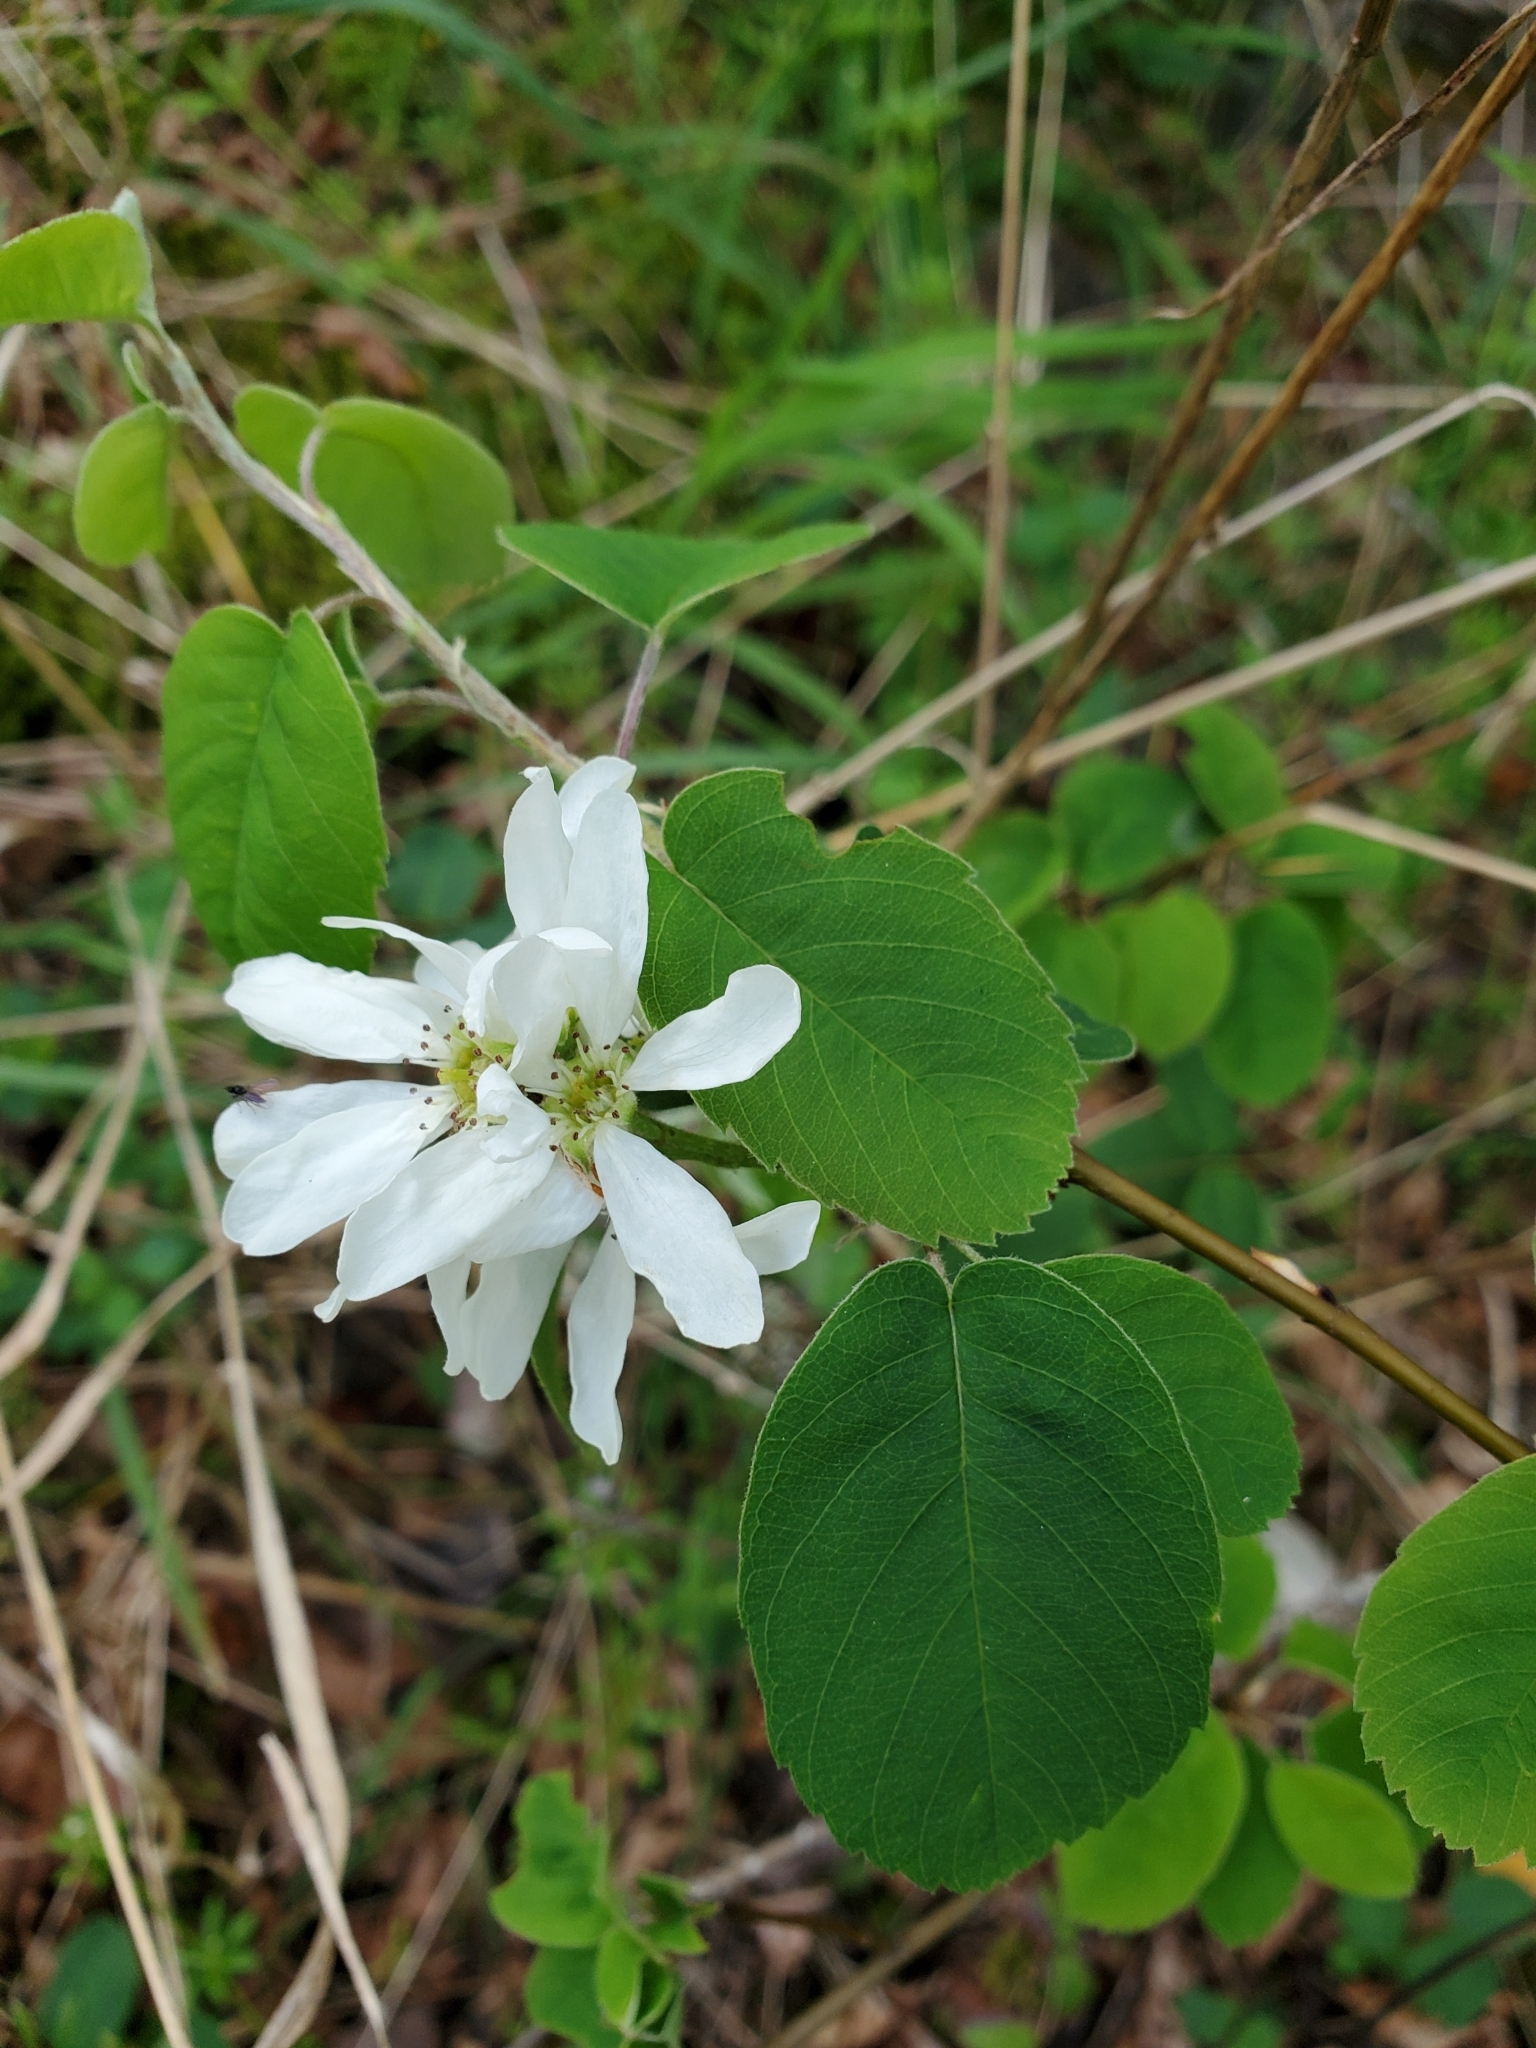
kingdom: Plantae
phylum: Tracheophyta
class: Magnoliopsida
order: Rosales
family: Rosaceae
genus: Amelanchier
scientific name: Amelanchier alnifolia
